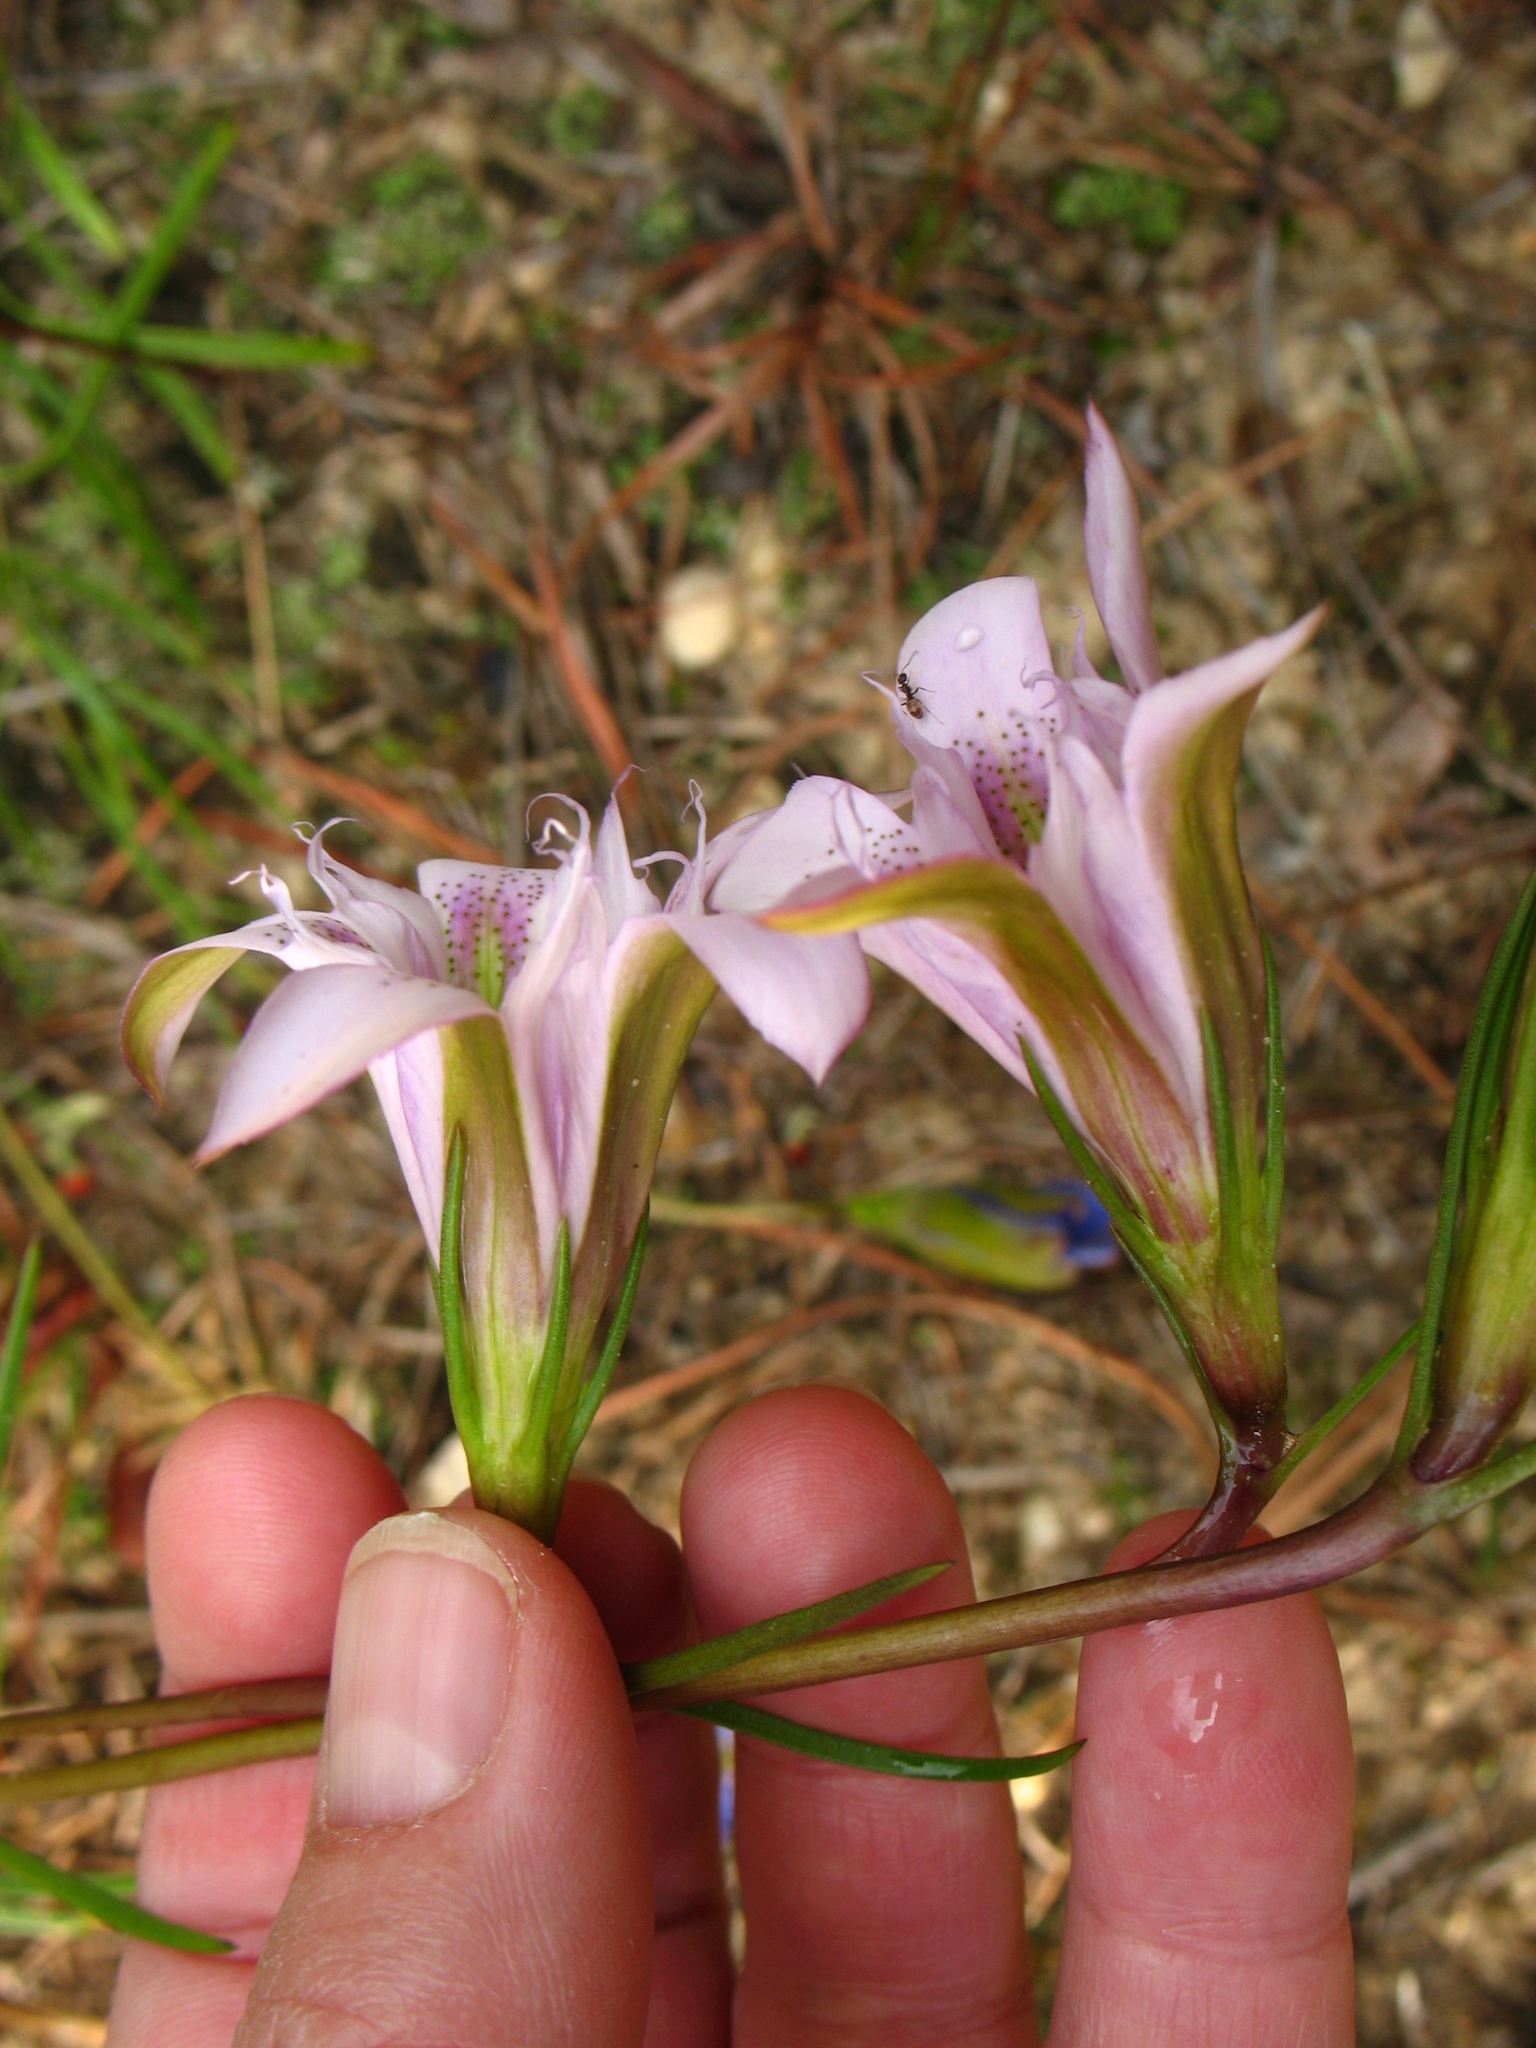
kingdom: Plantae
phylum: Tracheophyta
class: Magnoliopsida
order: Gentianales
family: Gentianaceae
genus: Gentiana
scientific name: Gentiana autumnalis
